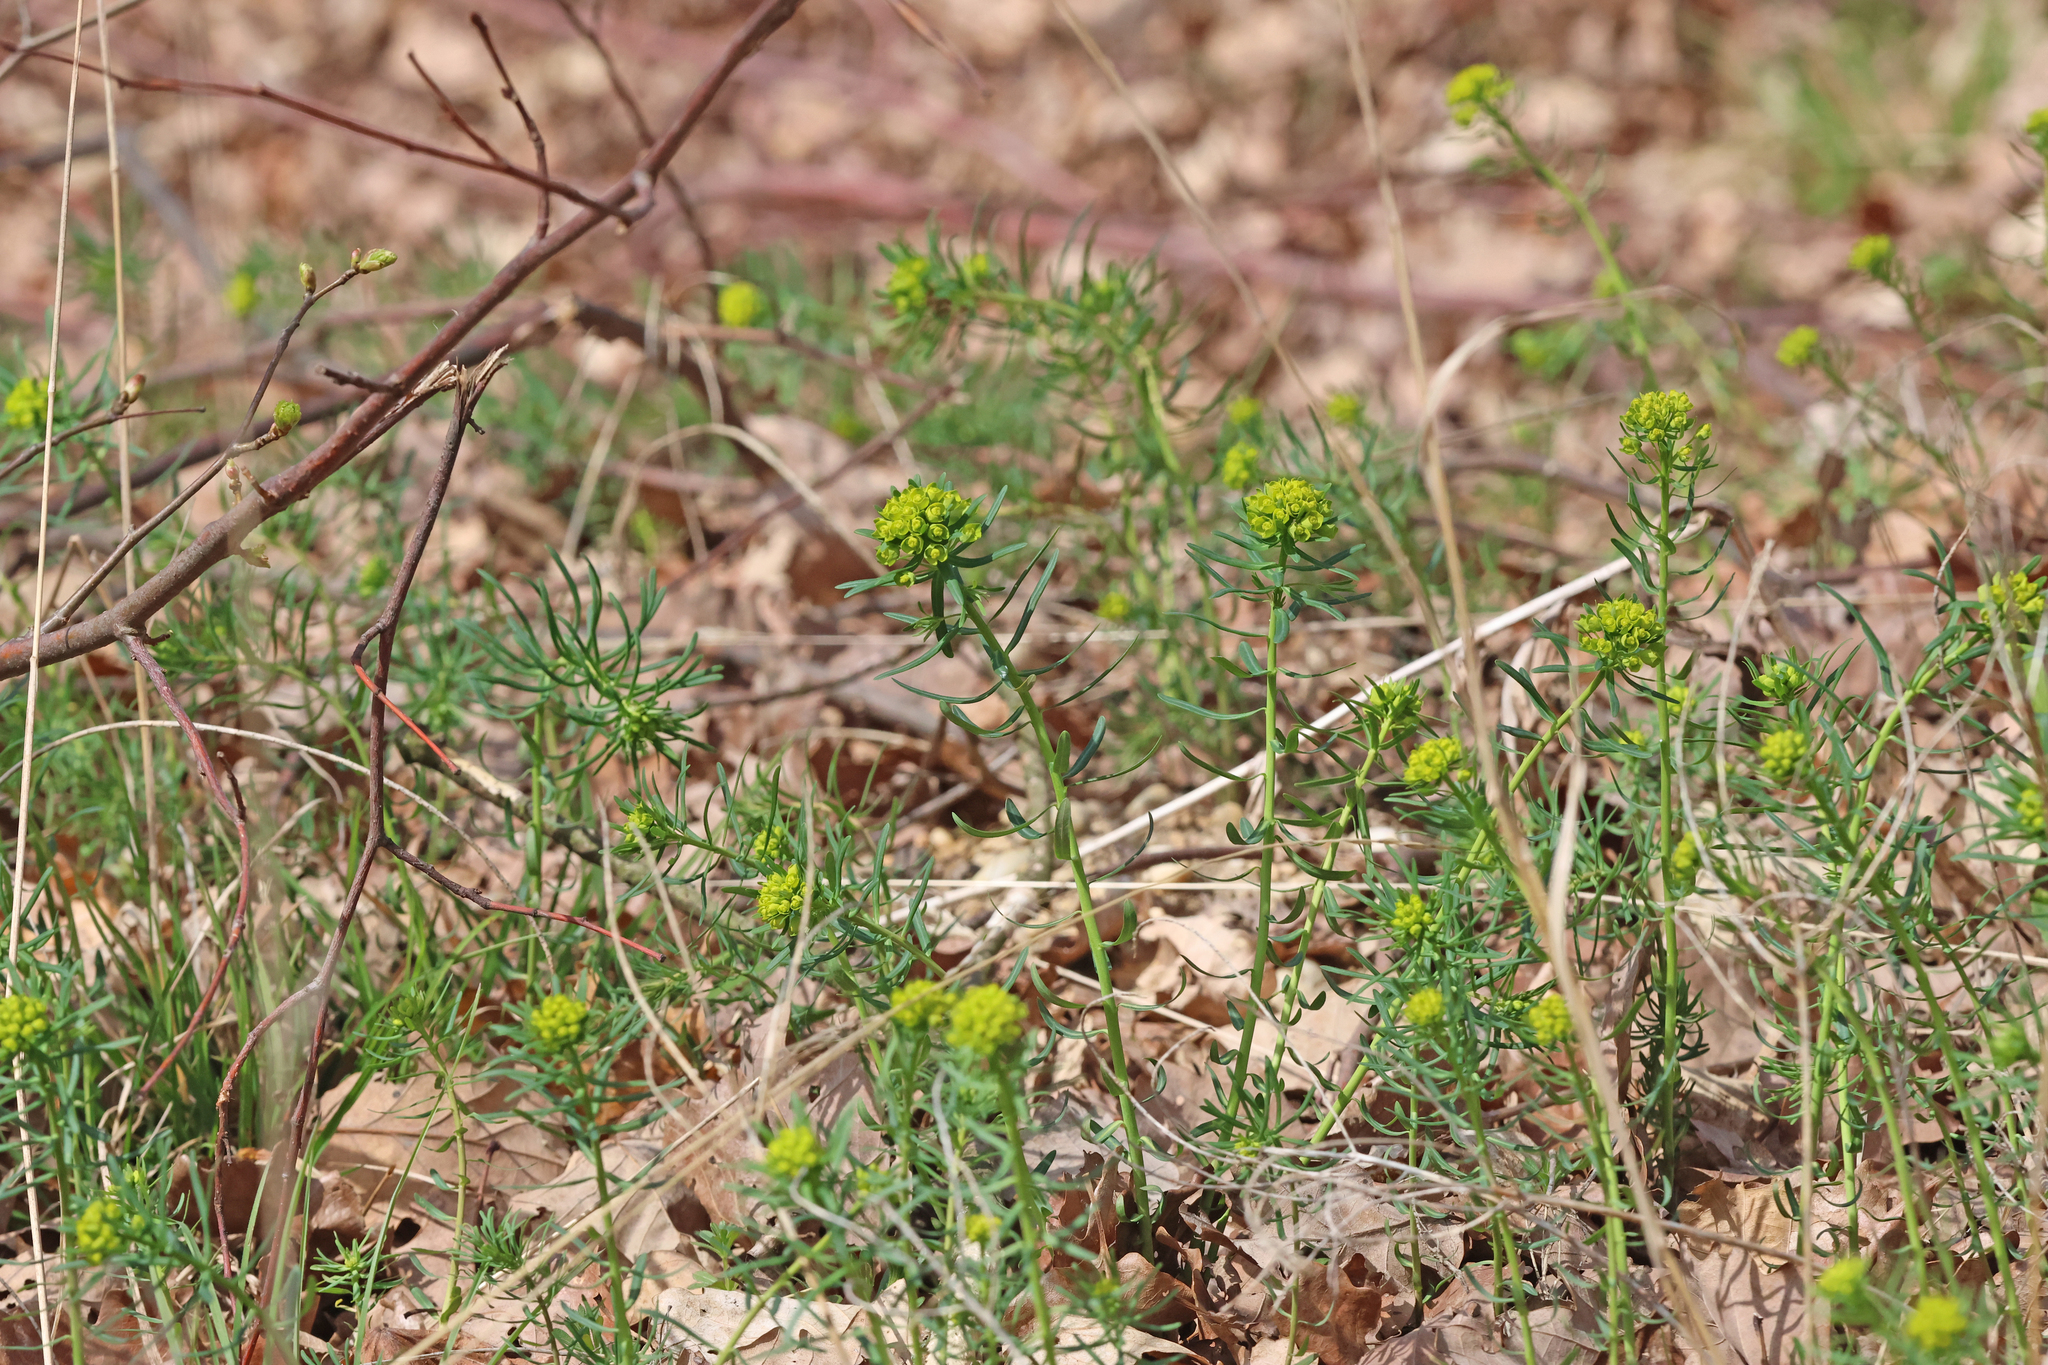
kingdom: Plantae
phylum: Tracheophyta
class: Magnoliopsida
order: Malpighiales
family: Euphorbiaceae
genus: Euphorbia
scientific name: Euphorbia cyparissias
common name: Cypress spurge
